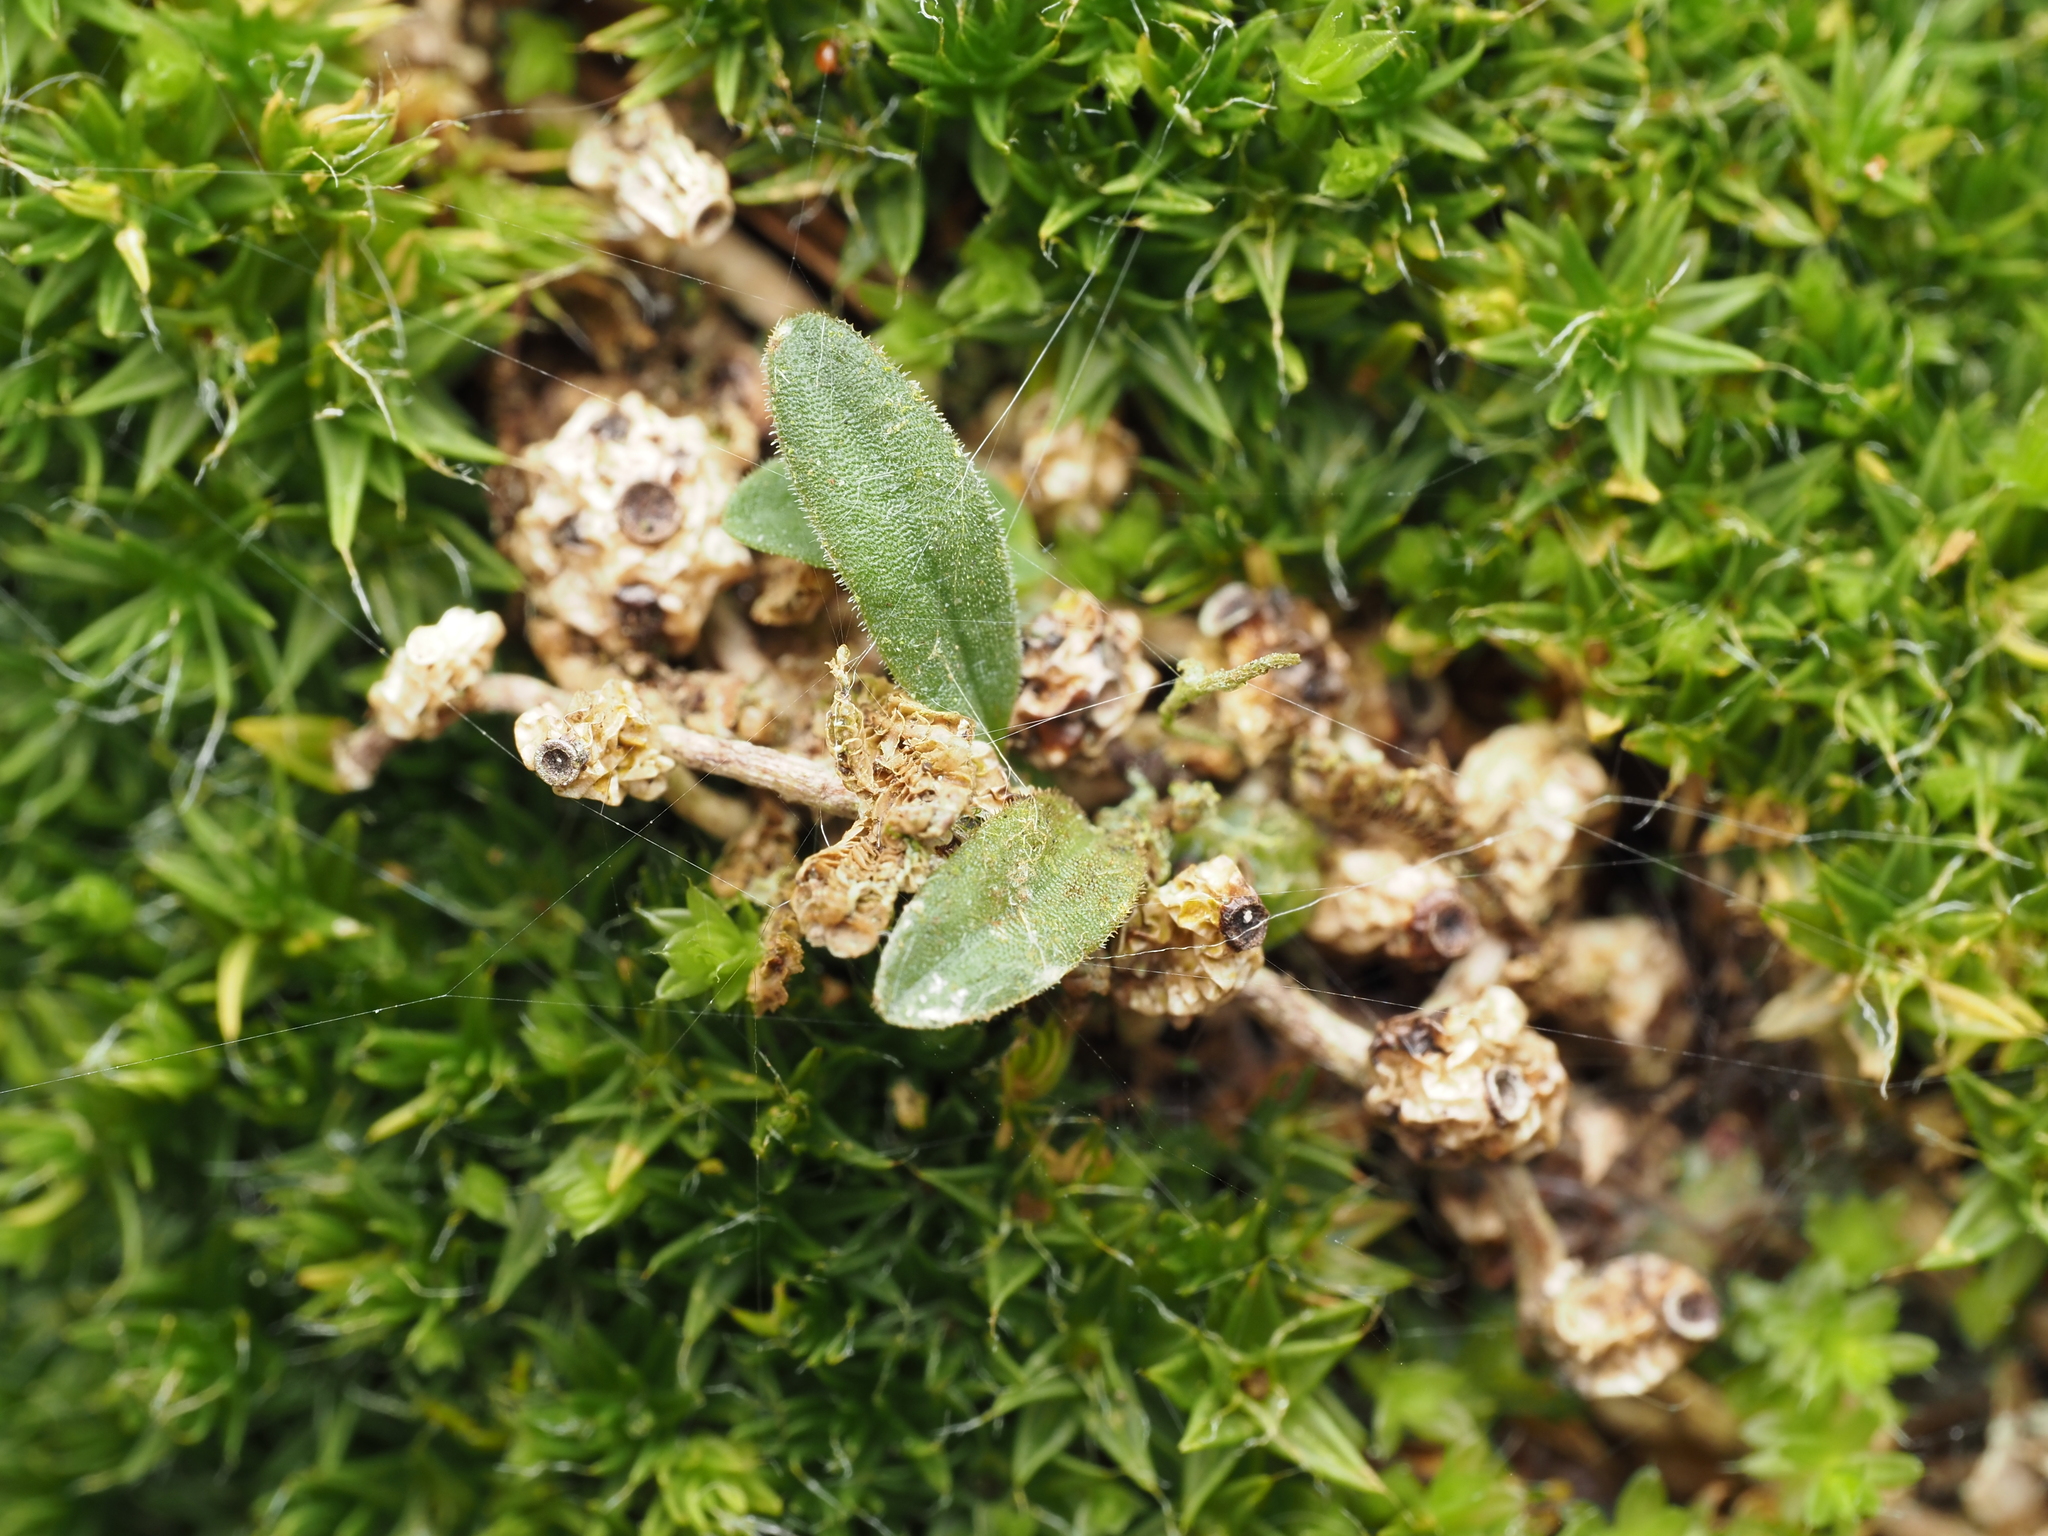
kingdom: Plantae
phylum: Tracheophyta
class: Liliopsida
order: Asparagales
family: Orchidaceae
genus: Bulbophyllum
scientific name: Bulbophyllum pygmaeum
